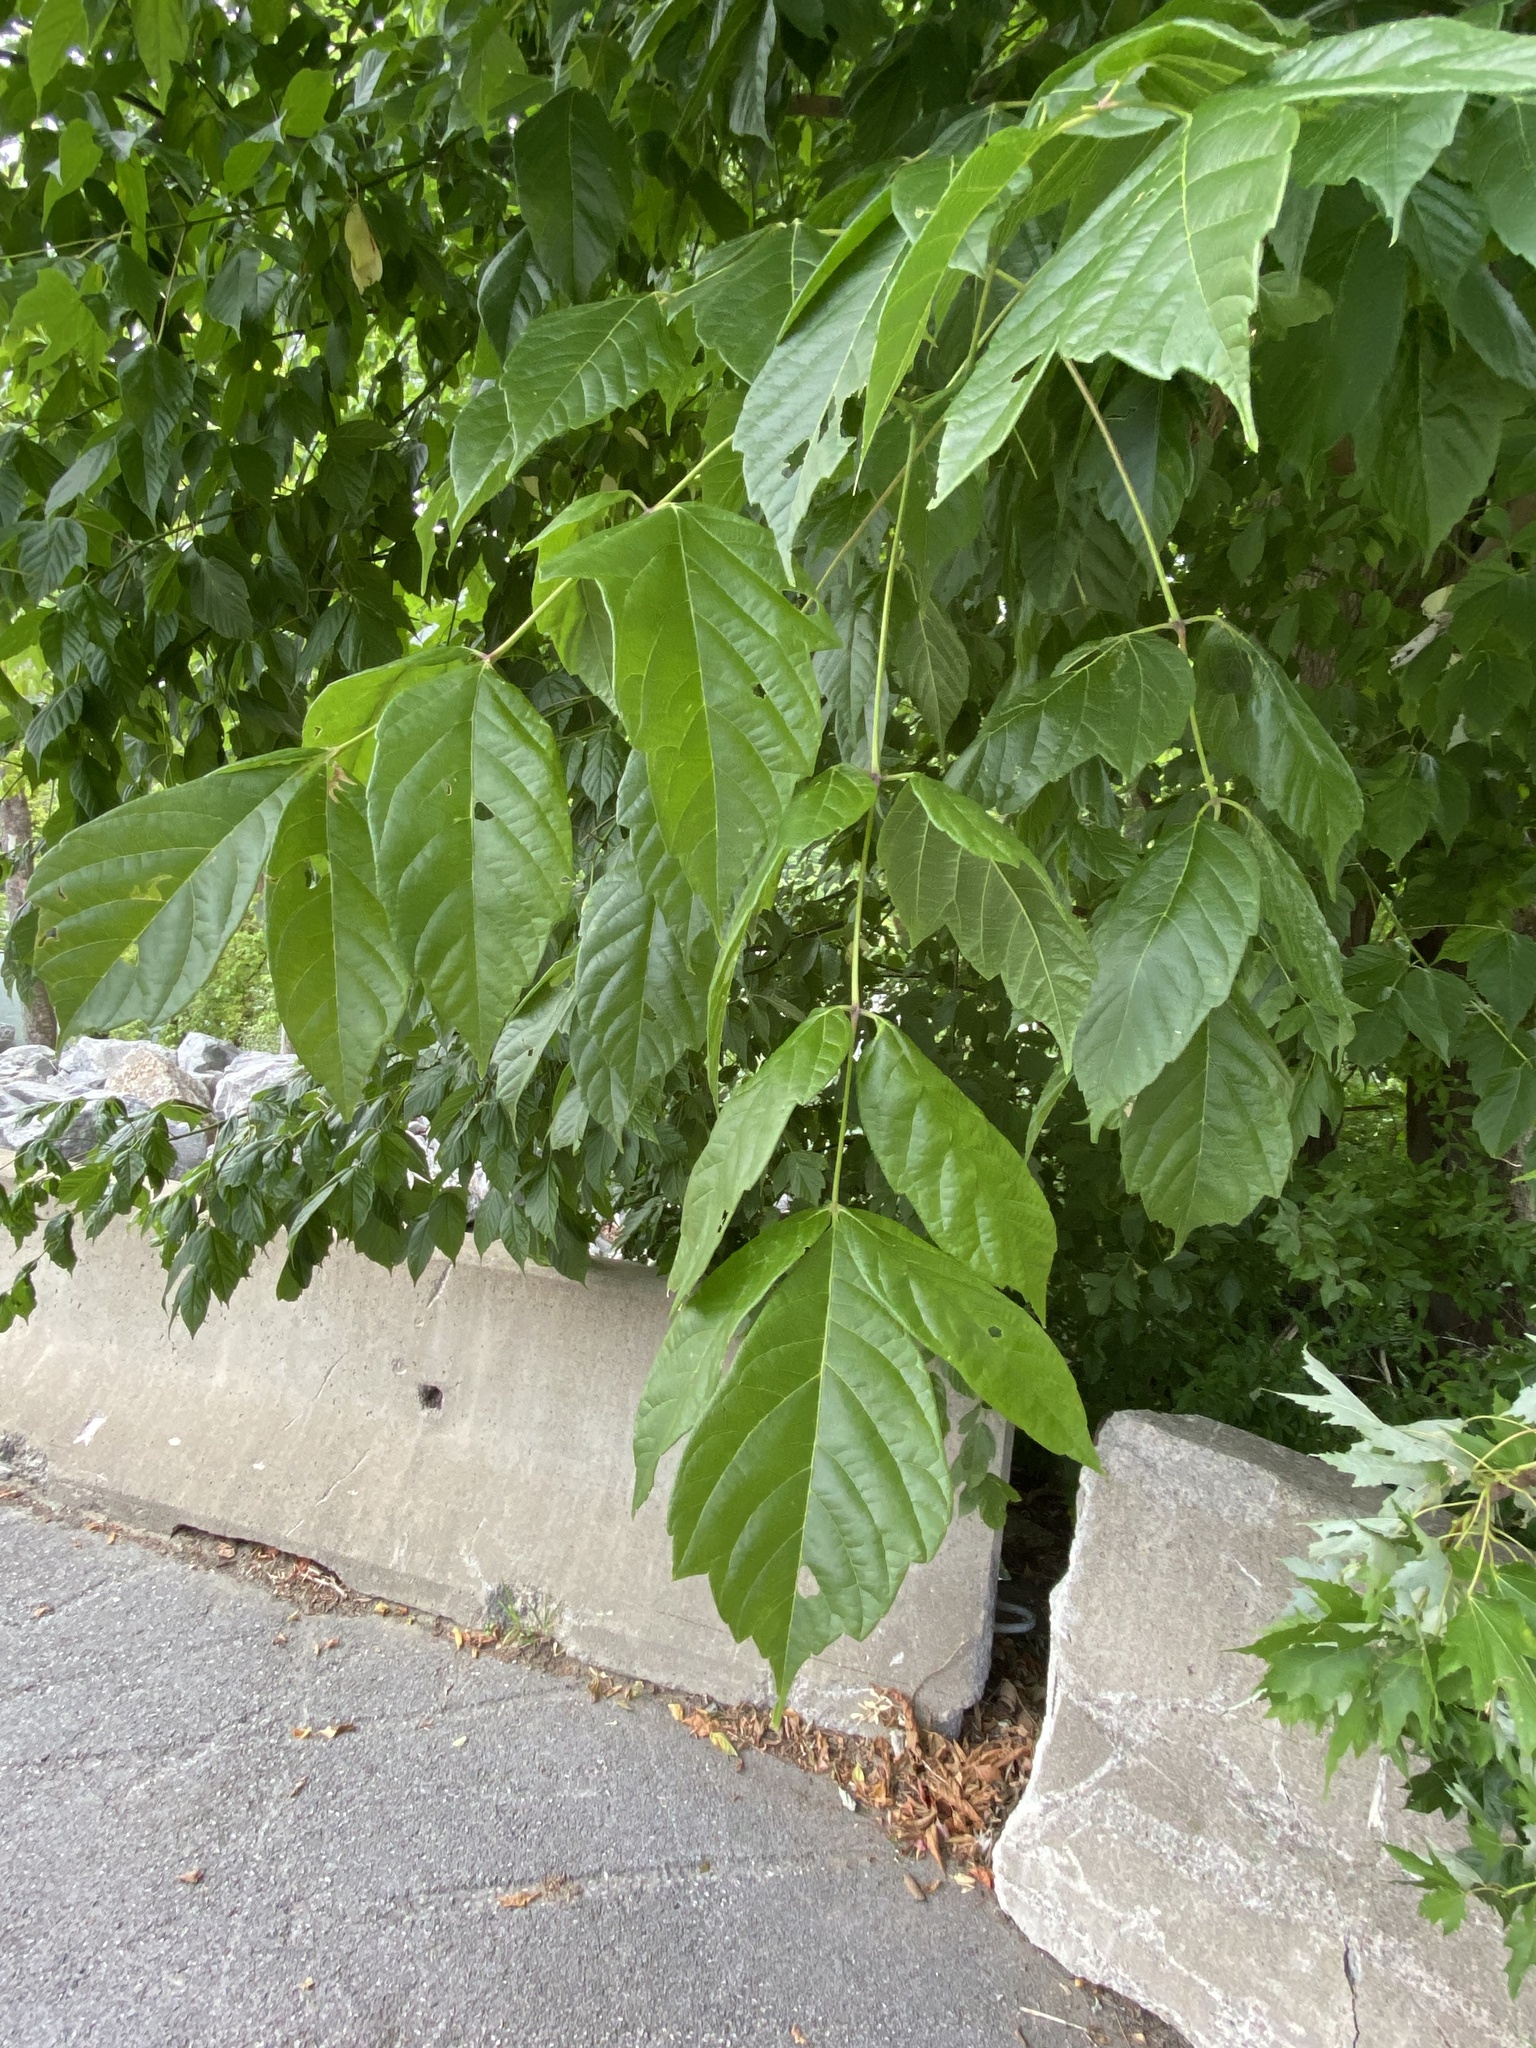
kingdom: Plantae
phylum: Tracheophyta
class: Magnoliopsida
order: Sapindales
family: Sapindaceae
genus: Acer
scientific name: Acer negundo
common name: Ashleaf maple
